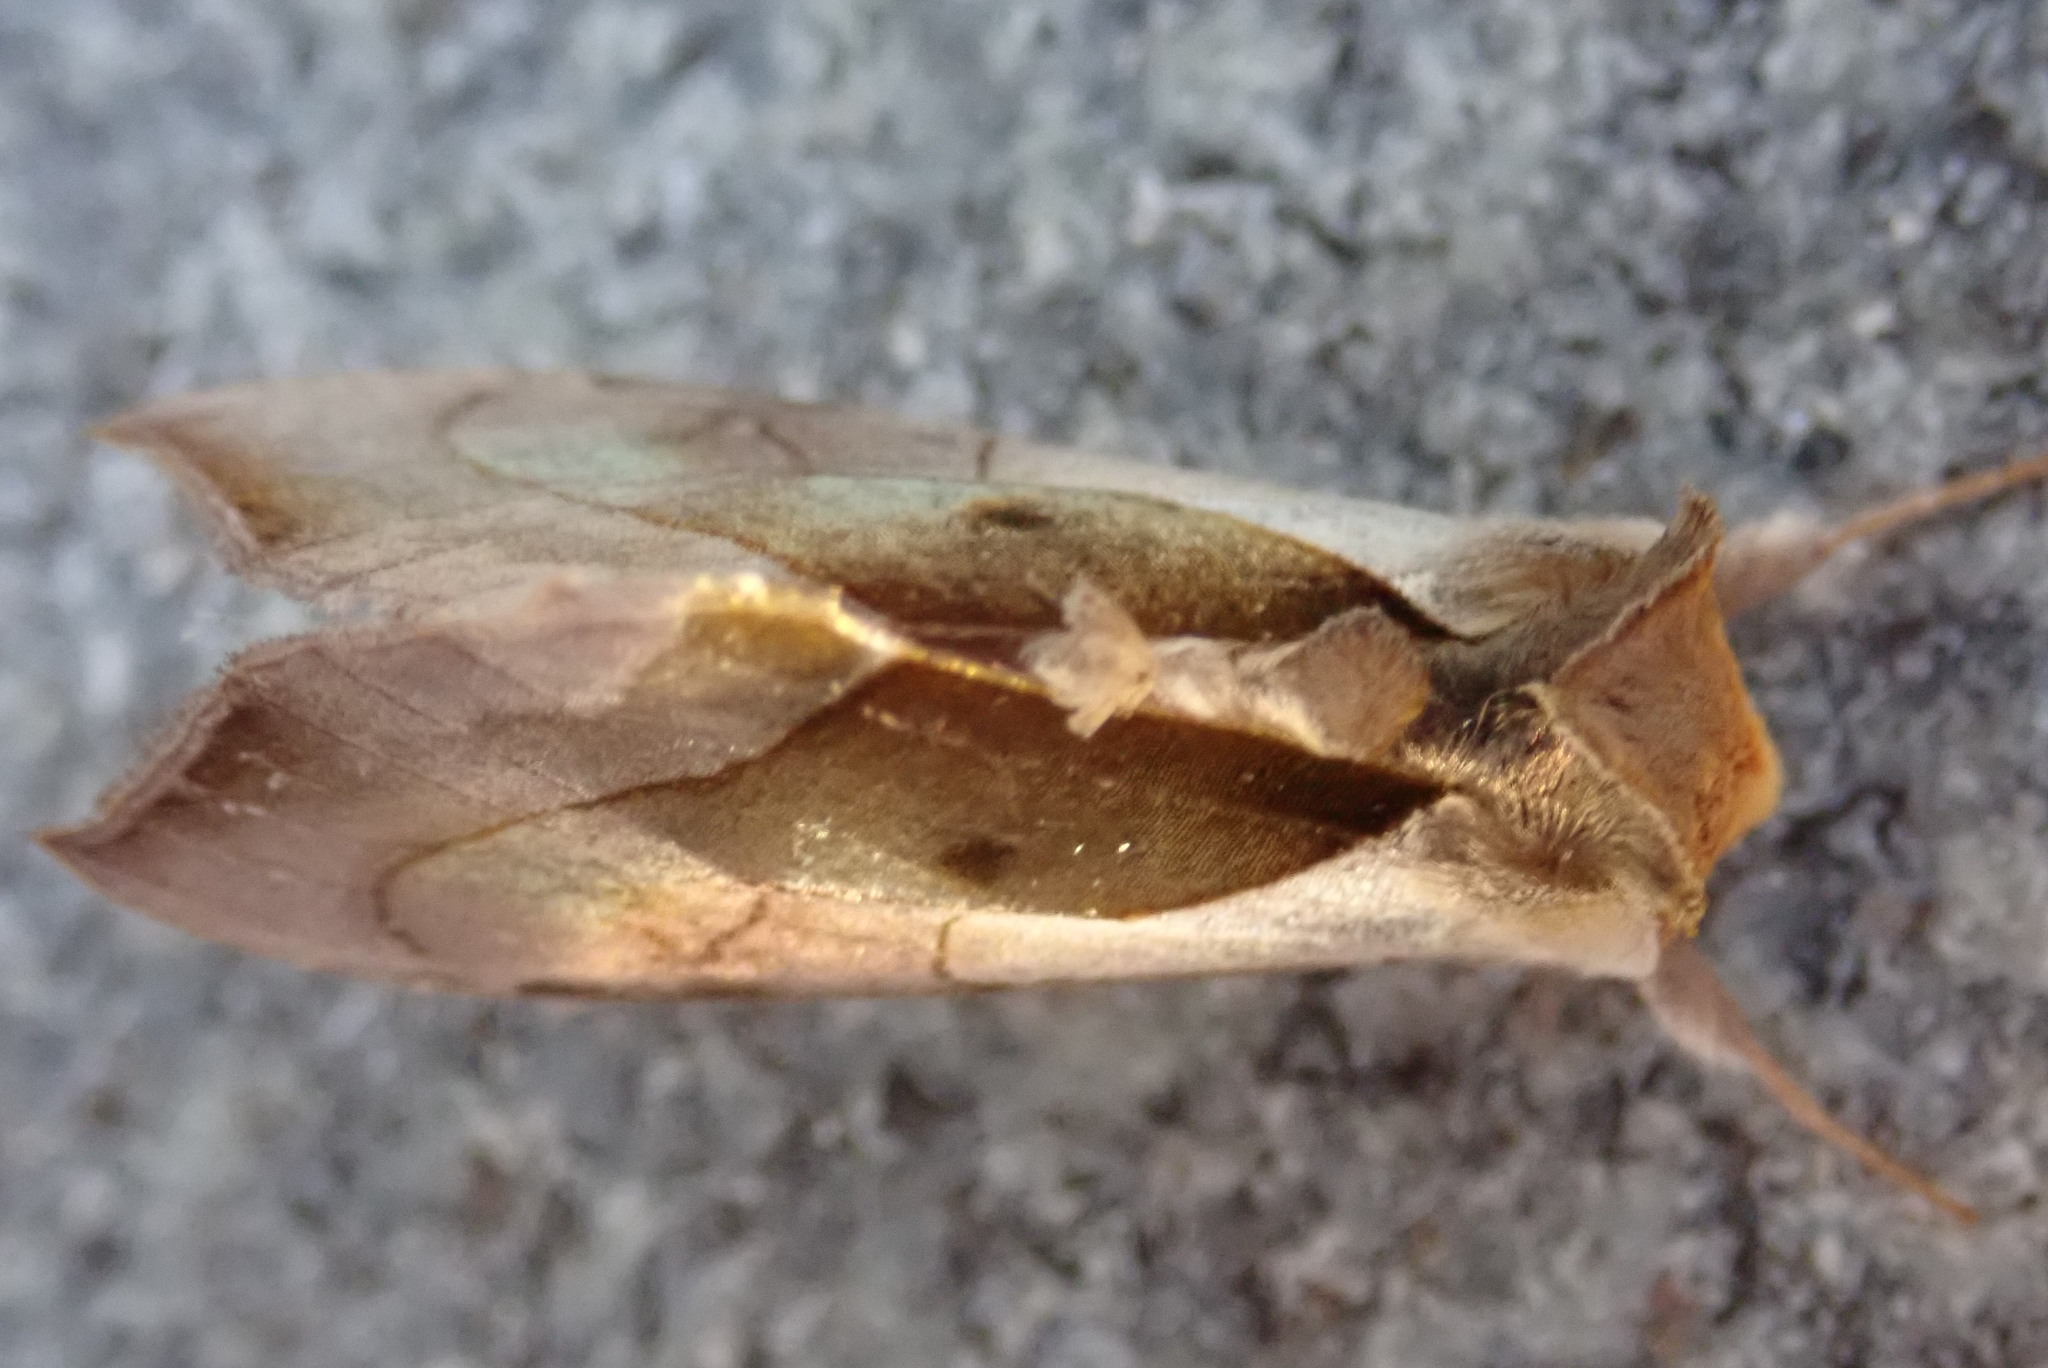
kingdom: Animalia
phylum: Arthropoda
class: Insecta
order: Lepidoptera
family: Noctuidae
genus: Diachrysia
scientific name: Diachrysia balluca
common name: Green-patched looper moth
